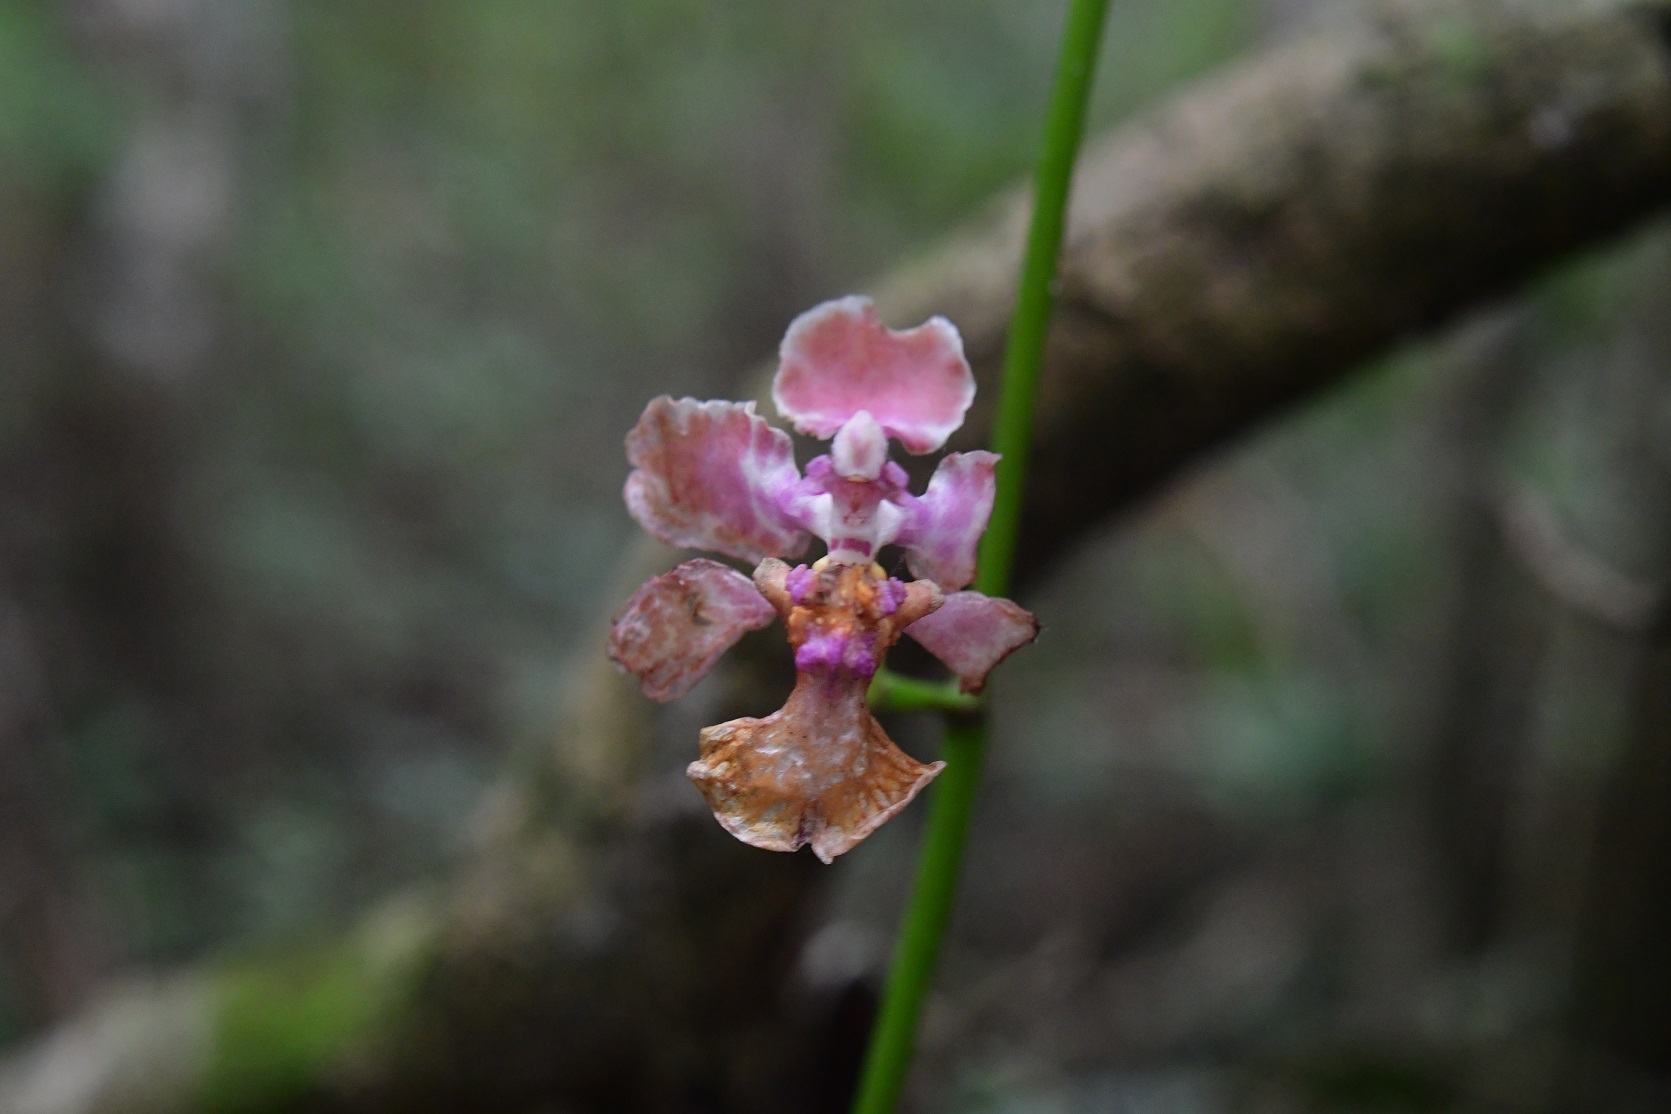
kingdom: Plantae
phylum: Tracheophyta
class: Liliopsida
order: Asparagales
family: Orchidaceae
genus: Trichocentrum
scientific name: Trichocentrum andreanum
